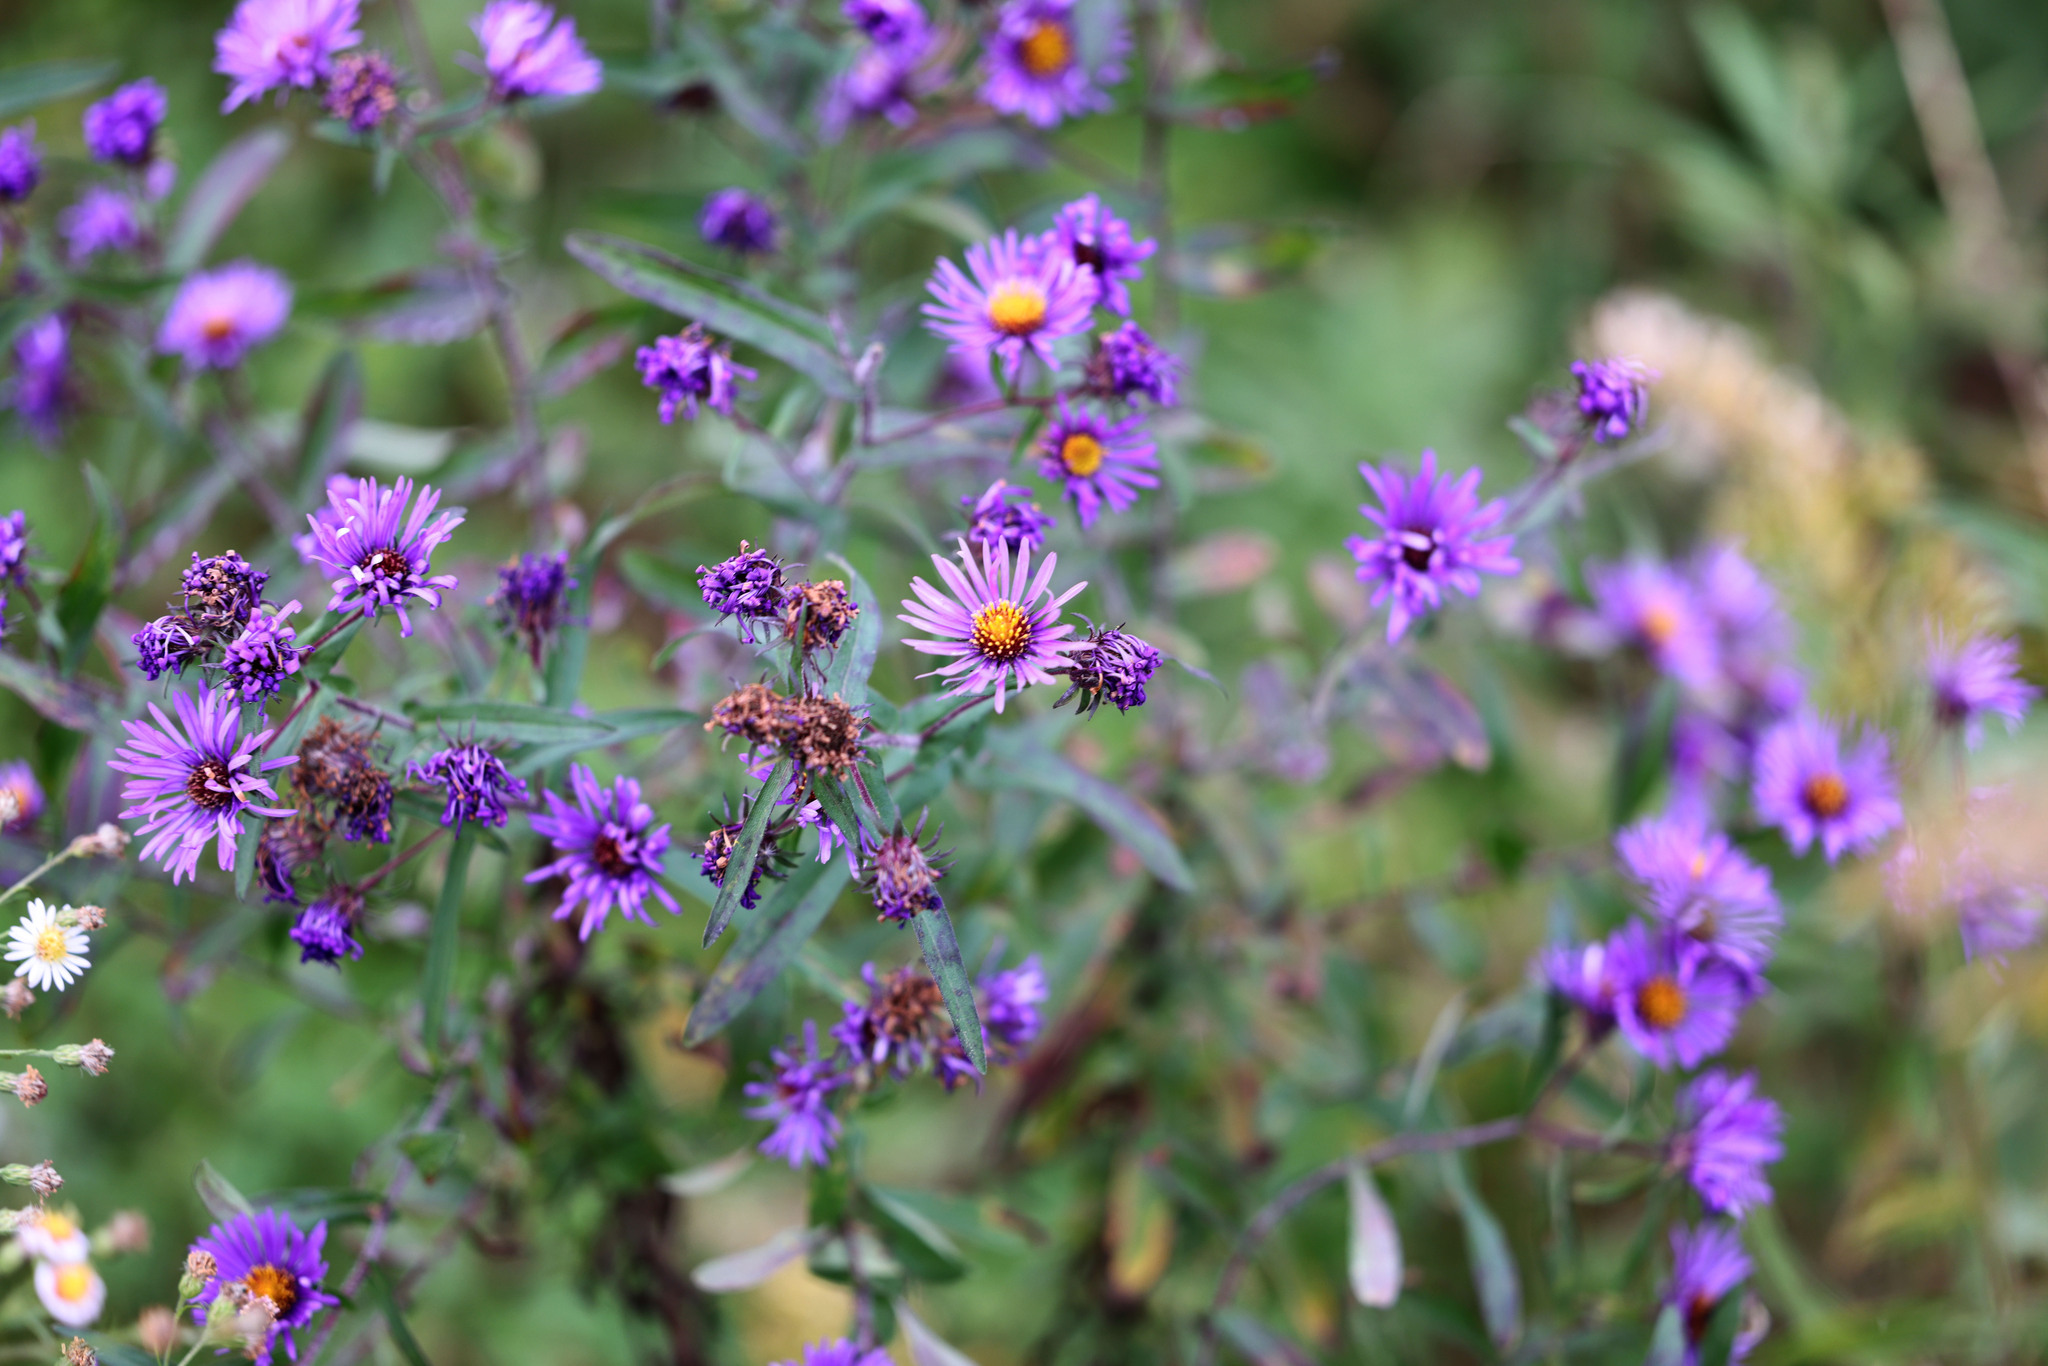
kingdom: Plantae
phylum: Tracheophyta
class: Magnoliopsida
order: Asterales
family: Asteraceae
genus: Symphyotrichum
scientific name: Symphyotrichum novae-angliae
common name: Michaelmas daisy
